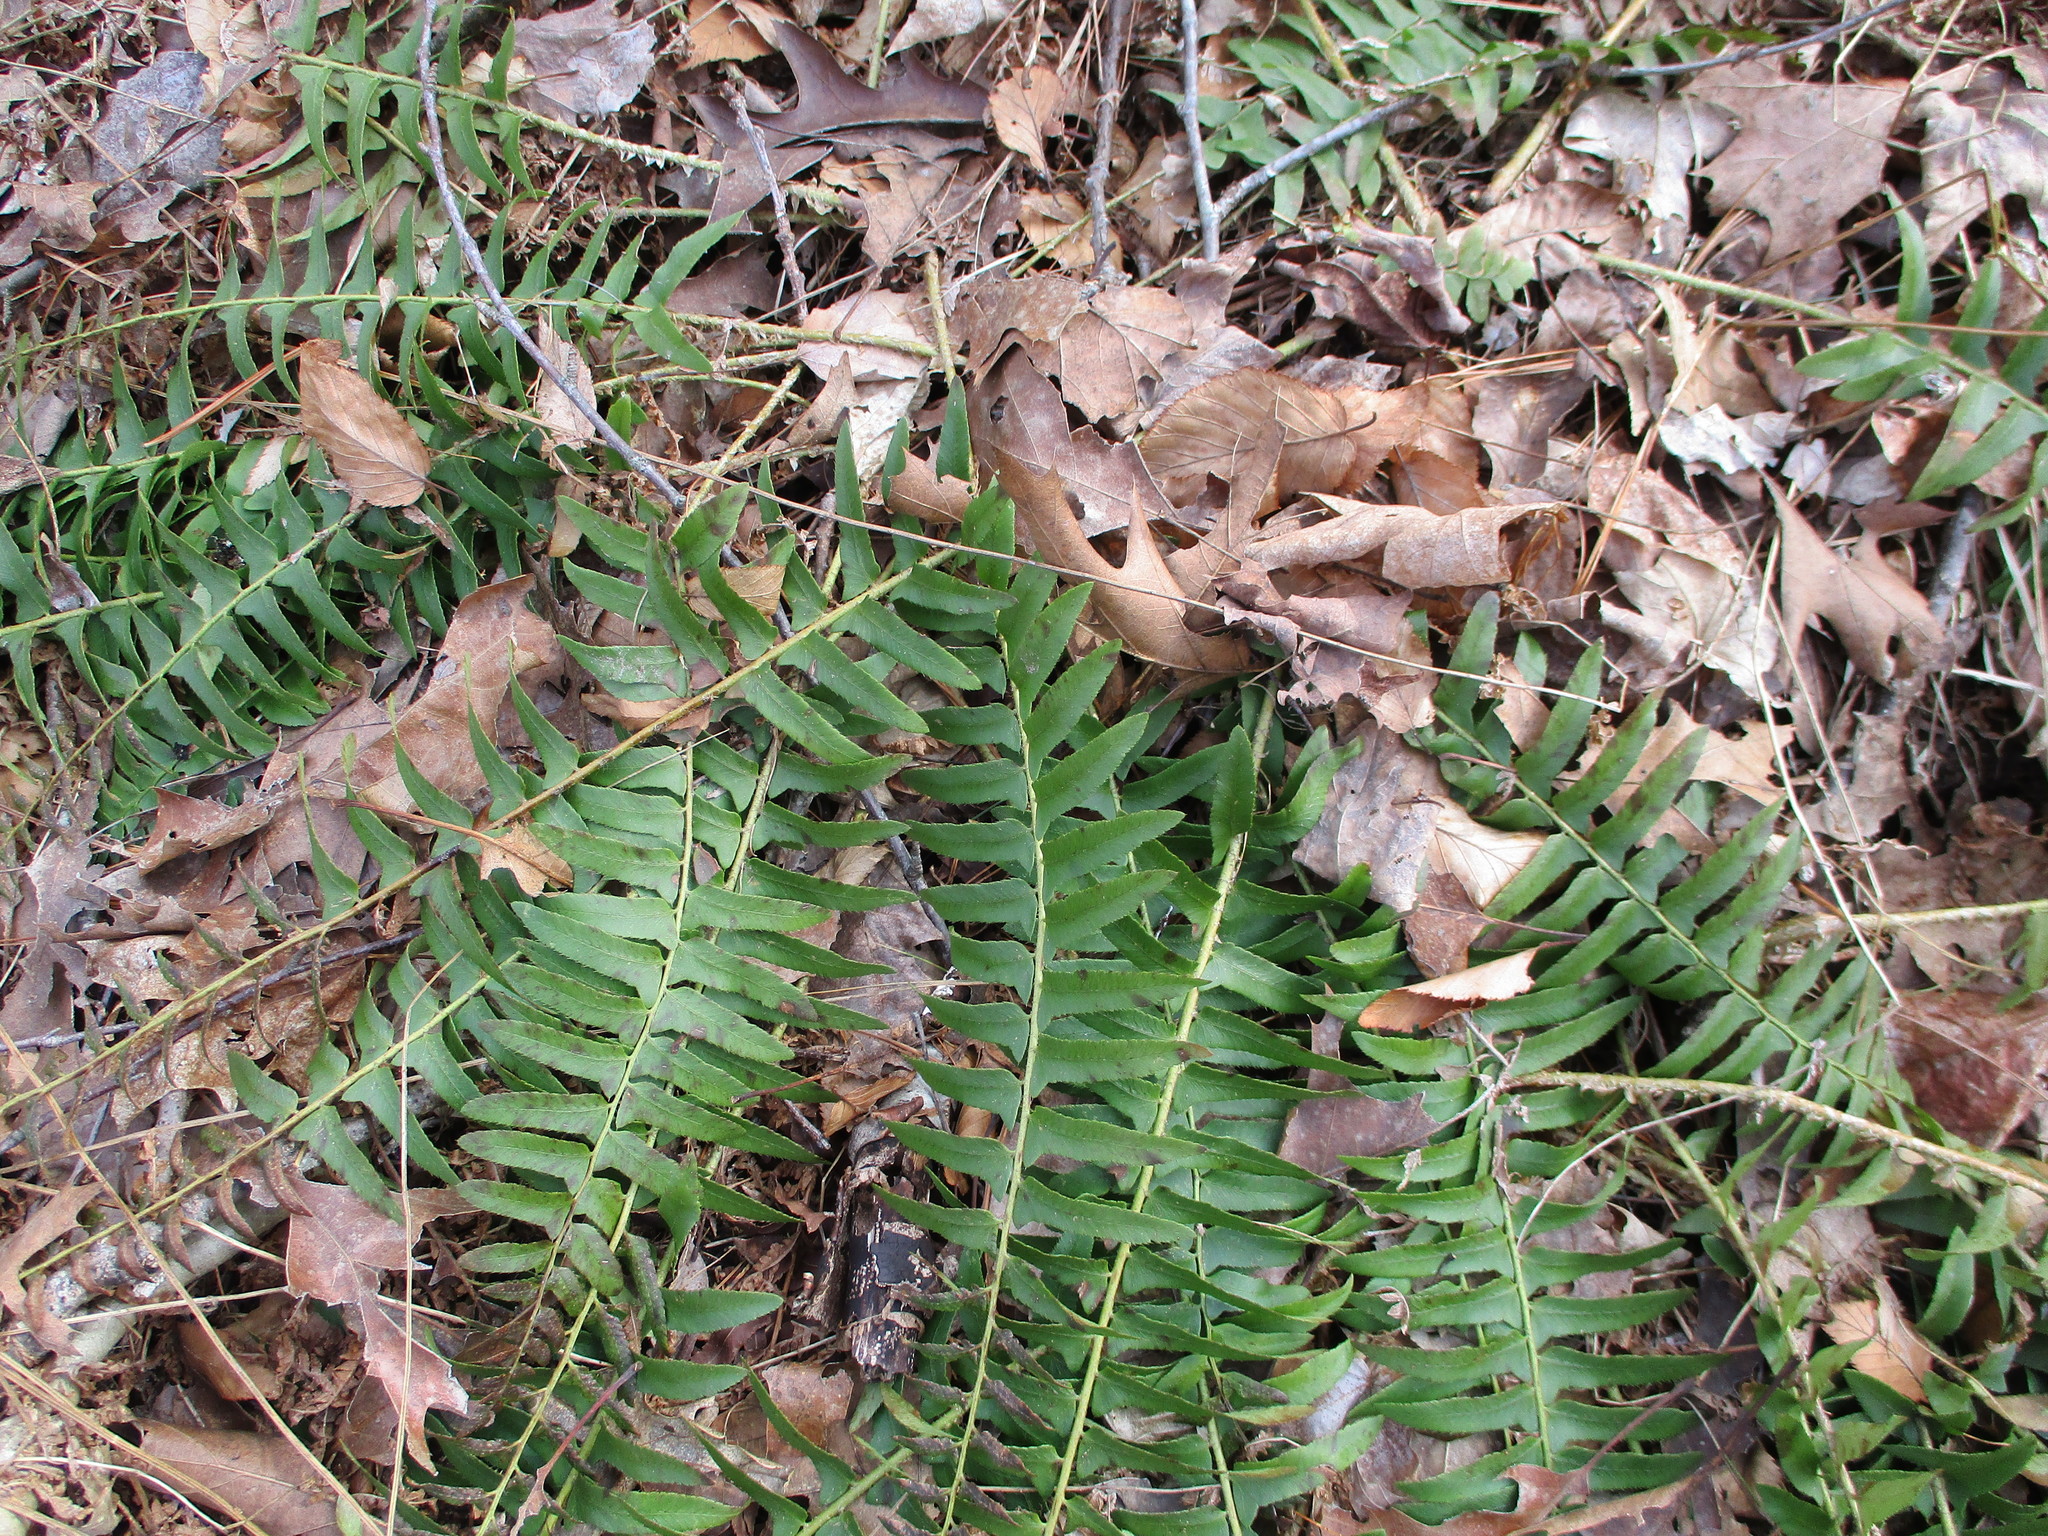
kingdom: Plantae
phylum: Tracheophyta
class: Polypodiopsida
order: Polypodiales
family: Dryopteridaceae
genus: Polystichum
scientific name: Polystichum acrostichoides
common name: Christmas fern
